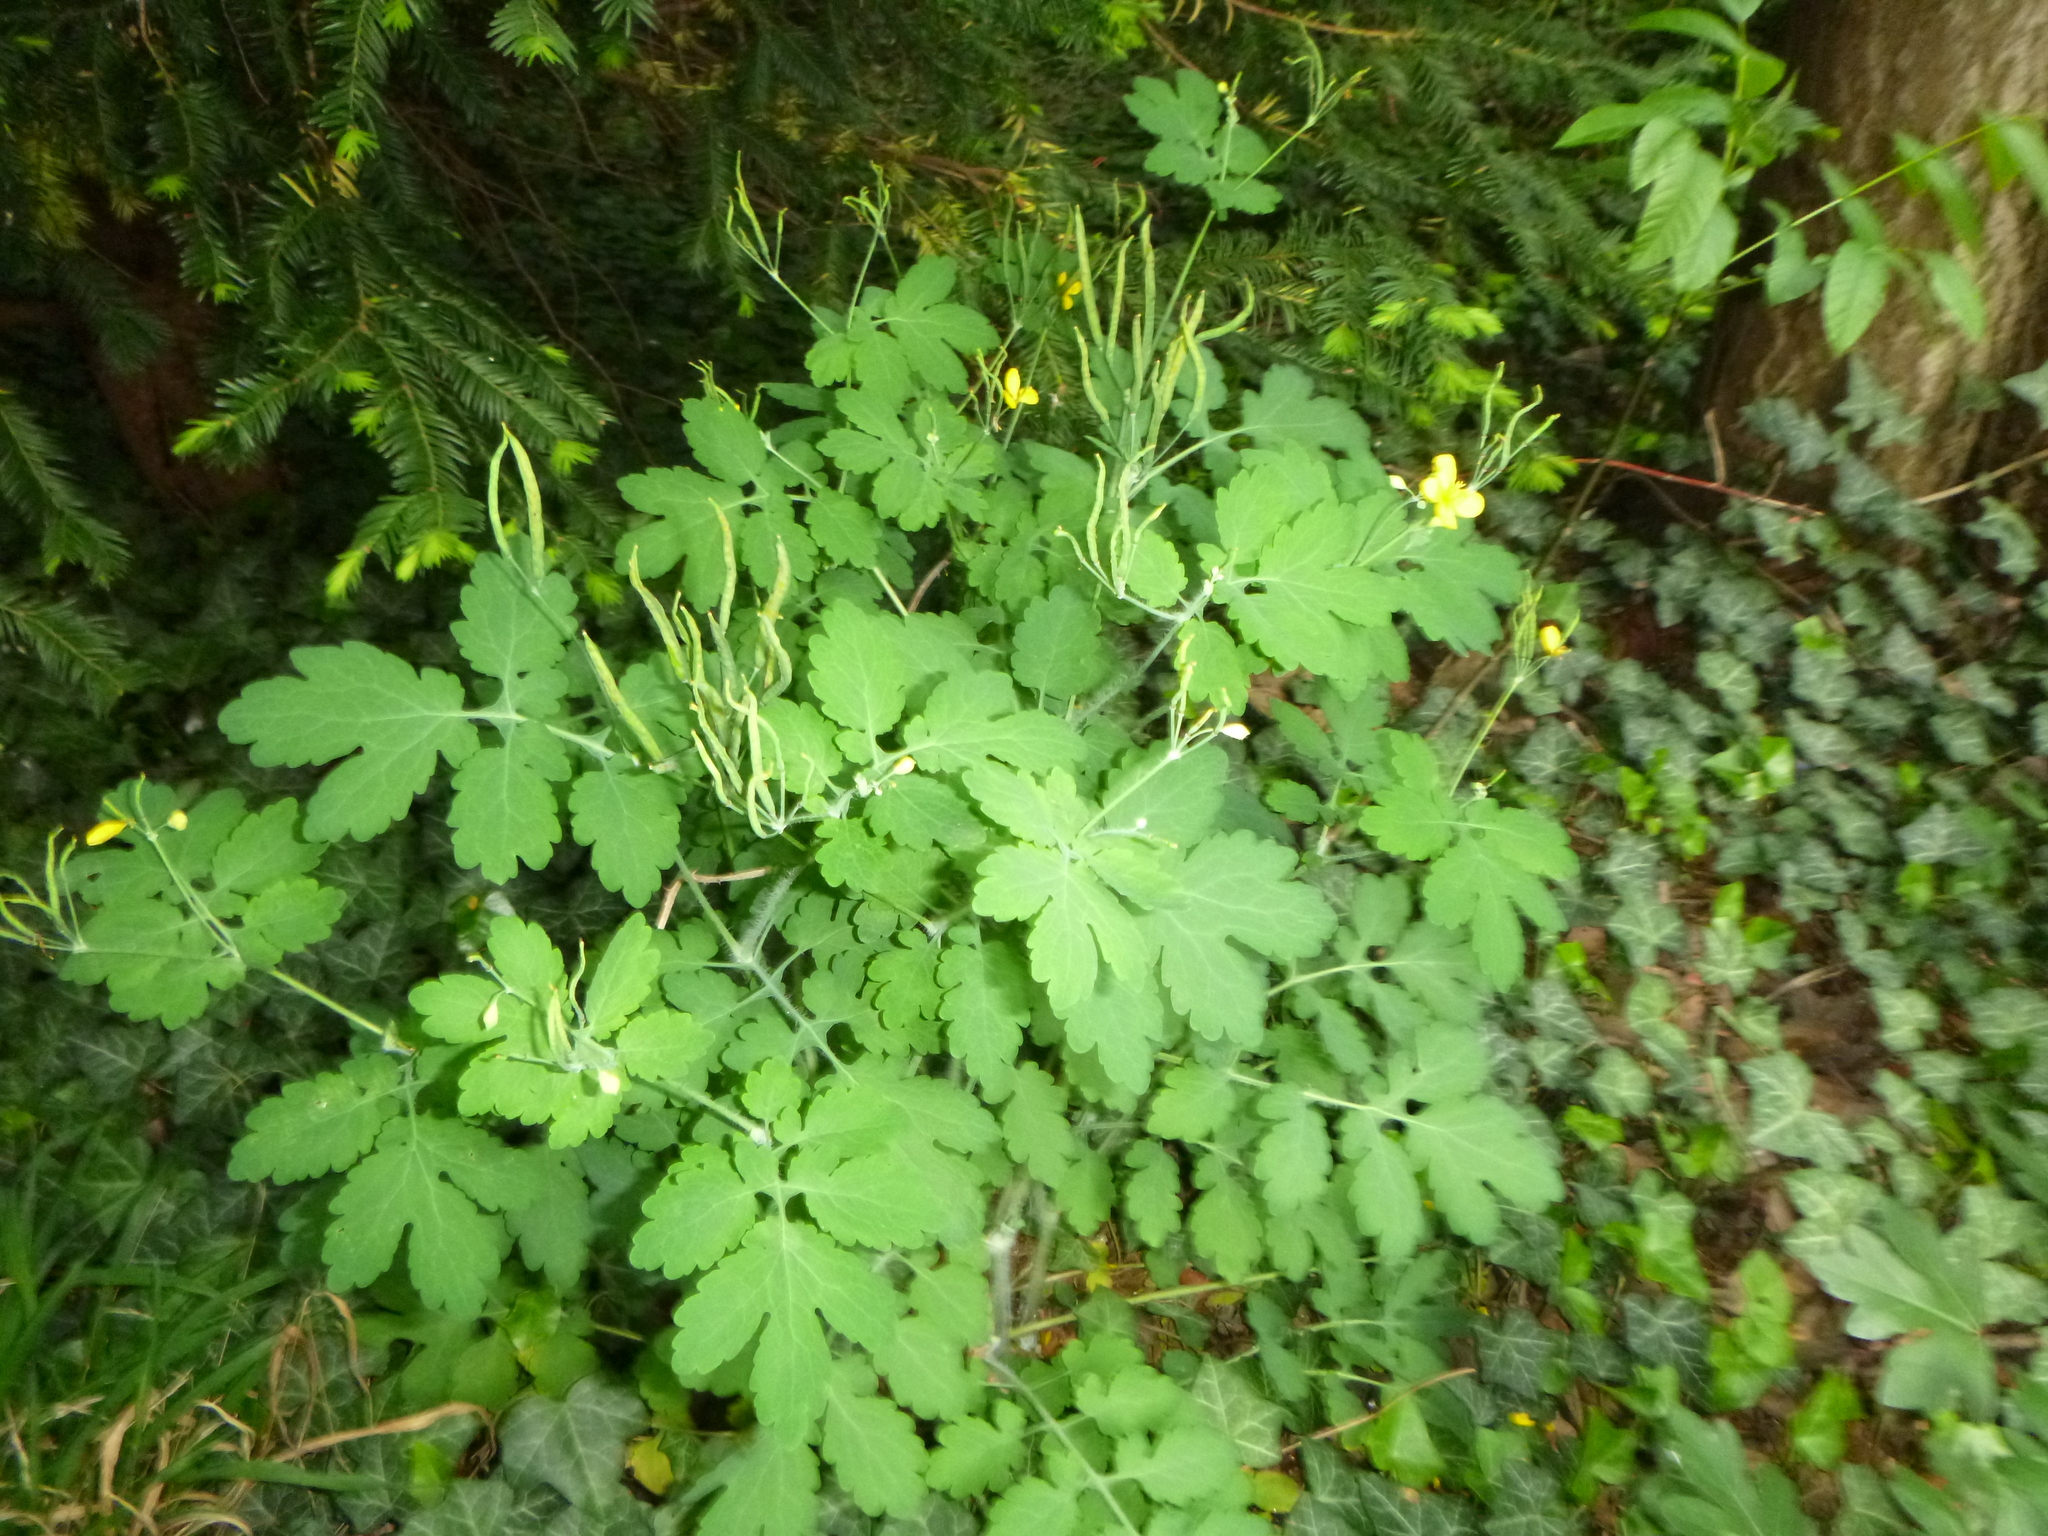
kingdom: Plantae
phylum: Tracheophyta
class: Magnoliopsida
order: Ranunculales
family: Papaveraceae
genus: Chelidonium
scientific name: Chelidonium majus
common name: Greater celandine
